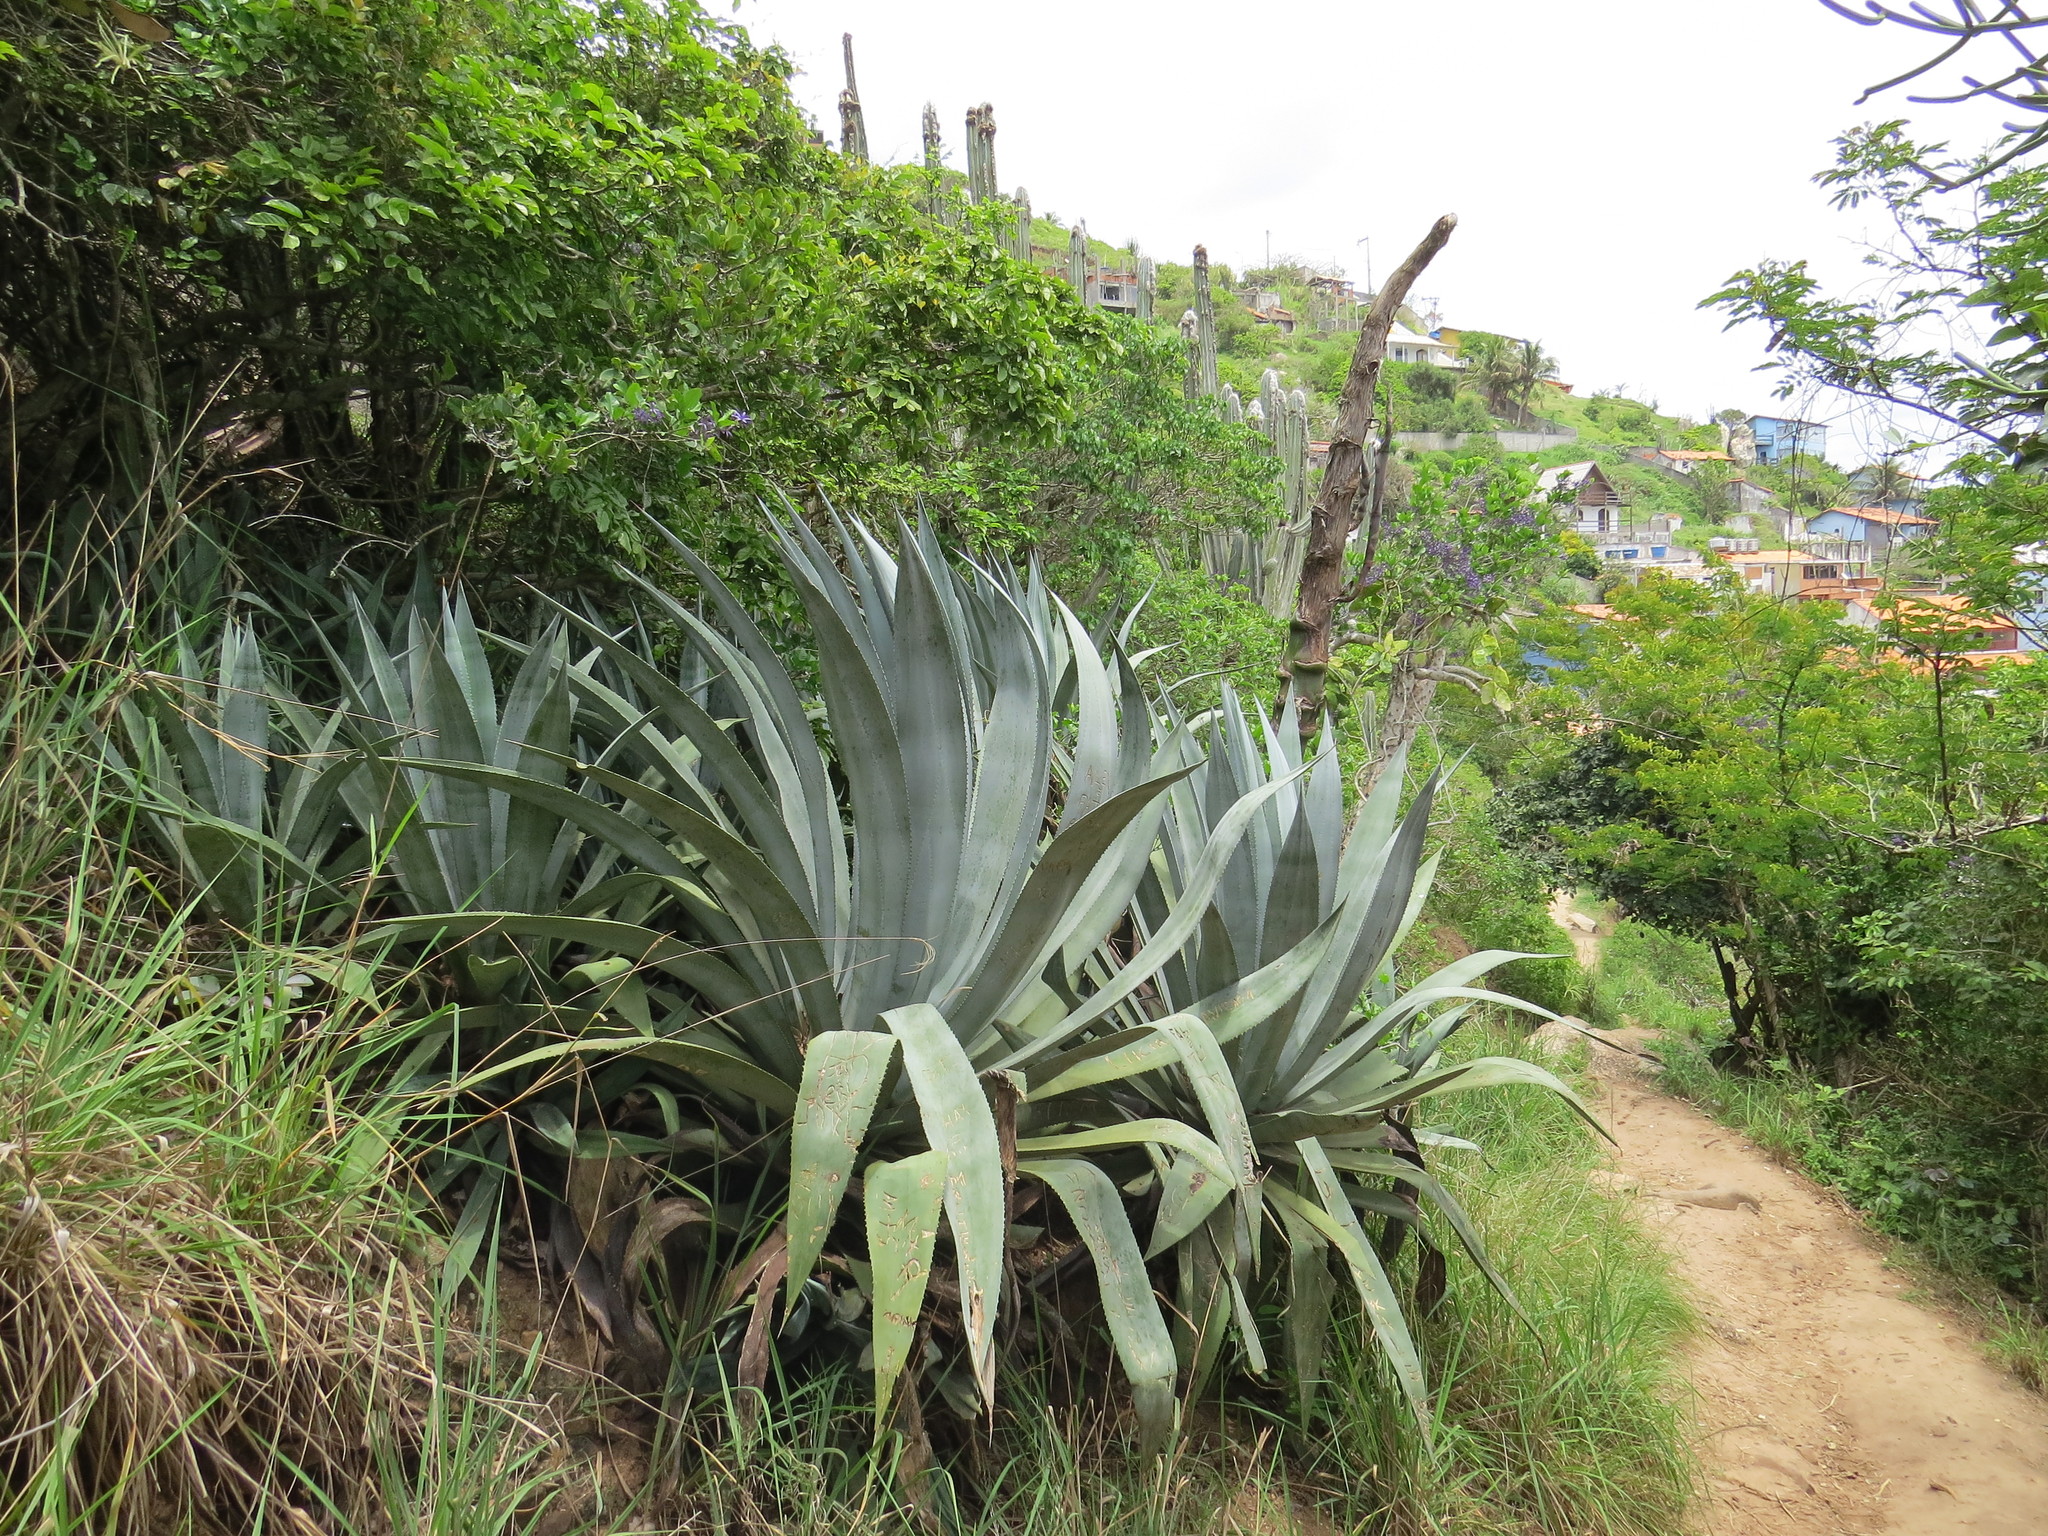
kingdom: Plantae
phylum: Tracheophyta
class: Liliopsida
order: Asparagales
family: Asparagaceae
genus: Agave
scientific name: Agave americana
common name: Centuryplant
